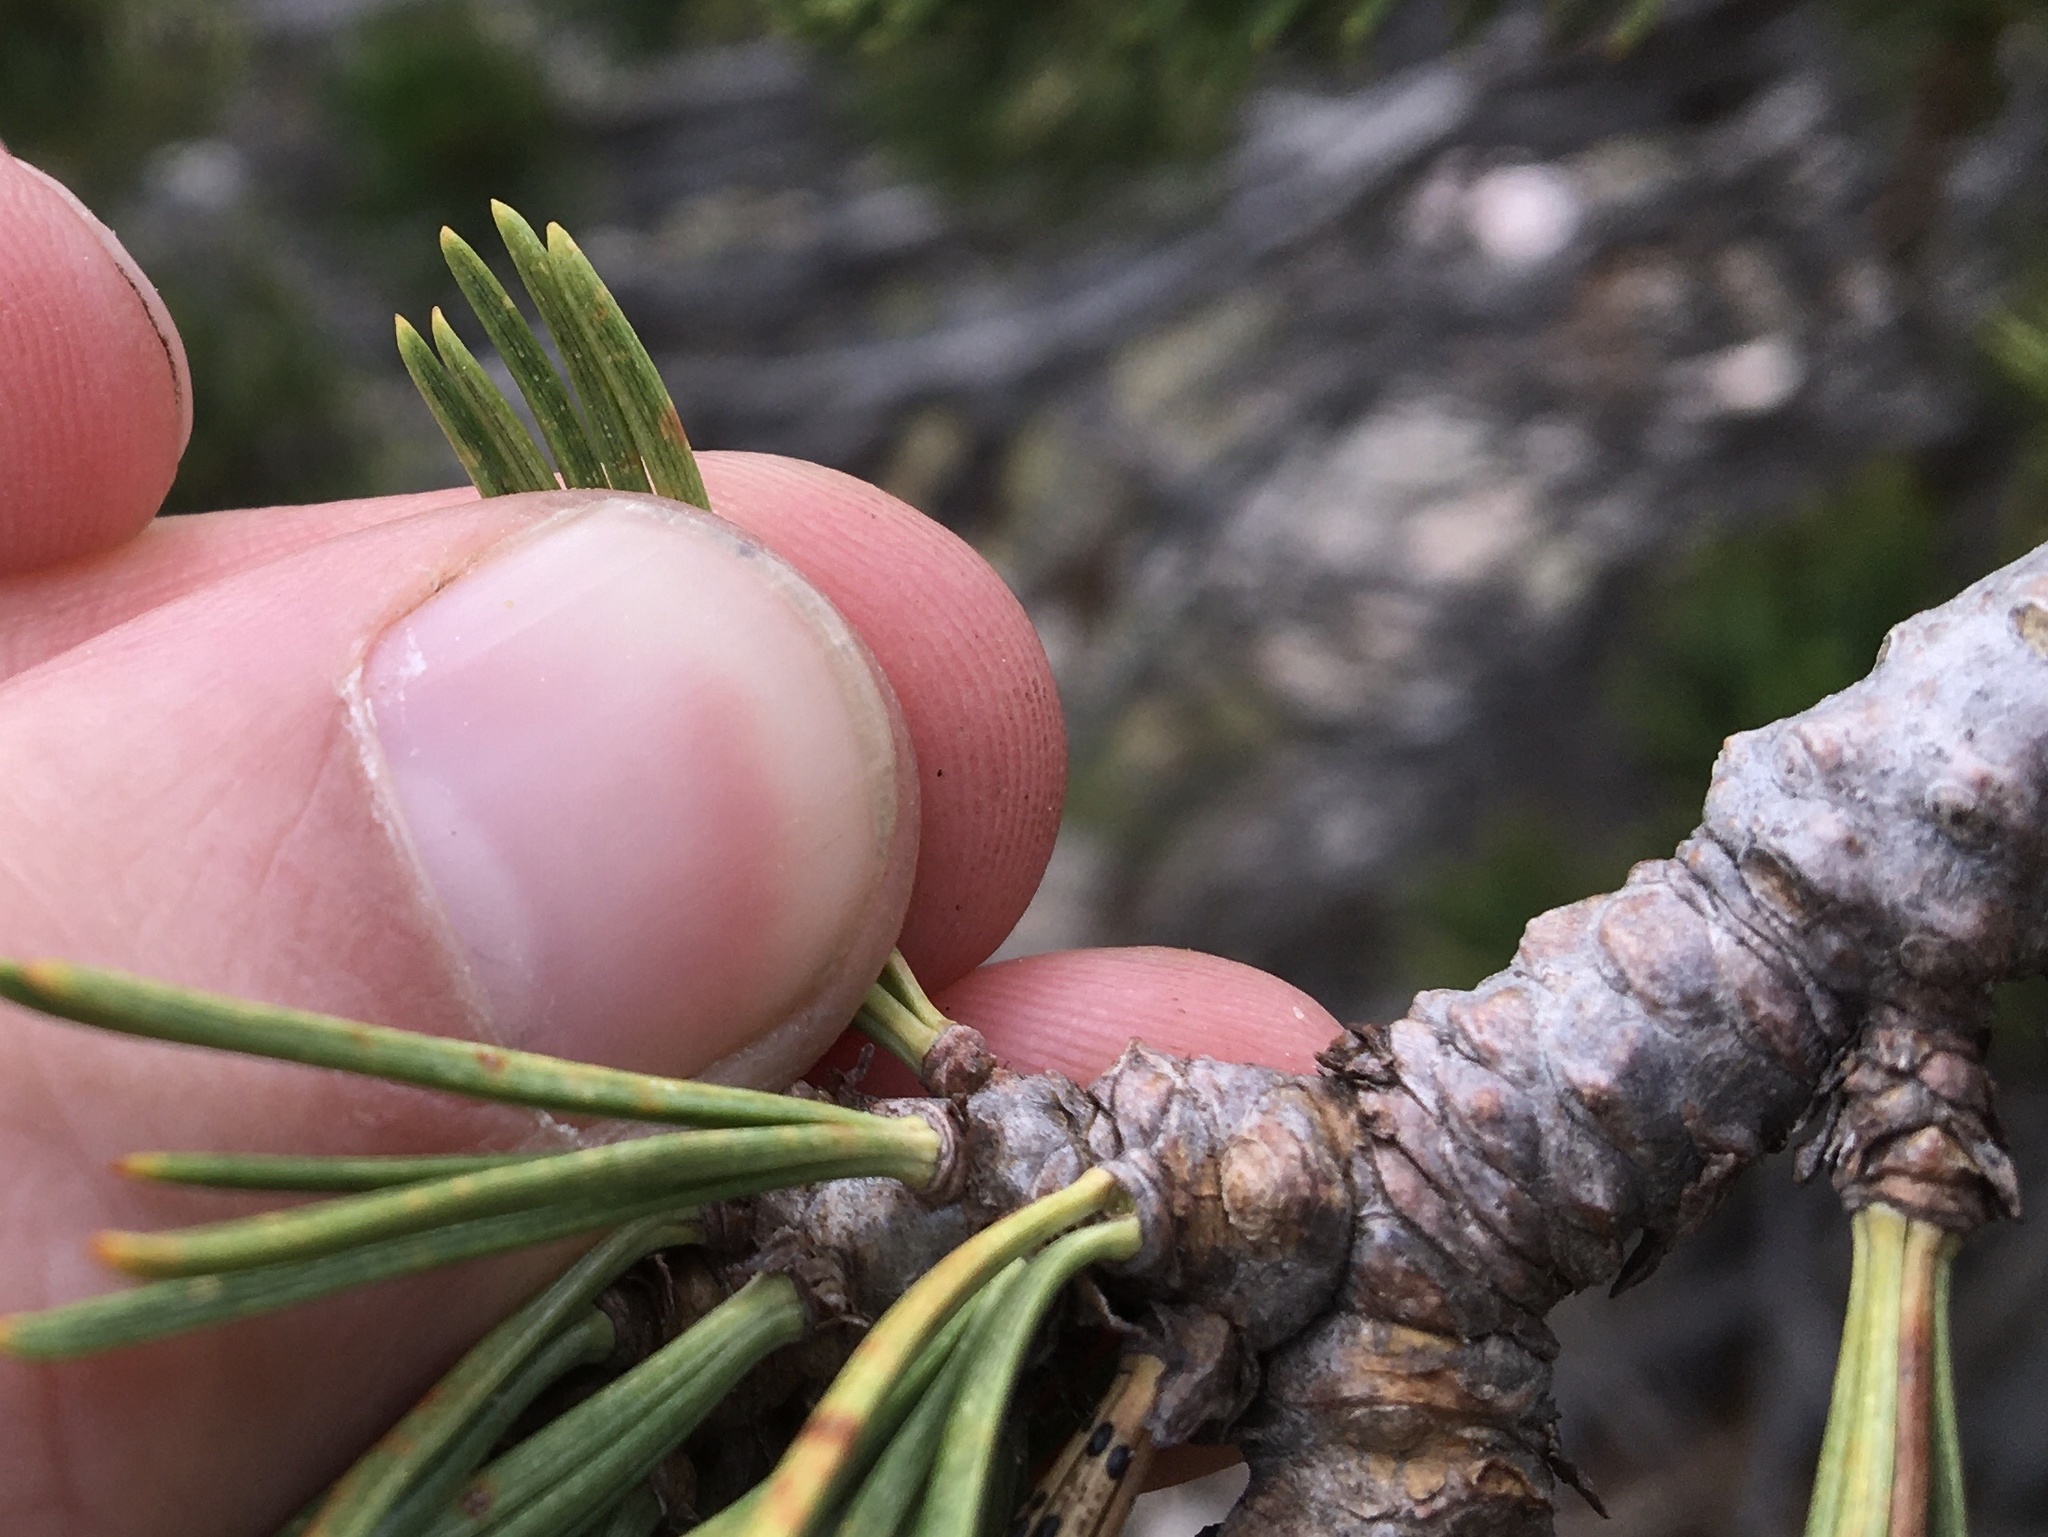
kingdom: Plantae
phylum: Tracheophyta
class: Pinopsida
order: Pinales
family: Pinaceae
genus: Pinus
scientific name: Pinus albicaulis
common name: Whitebark pine
